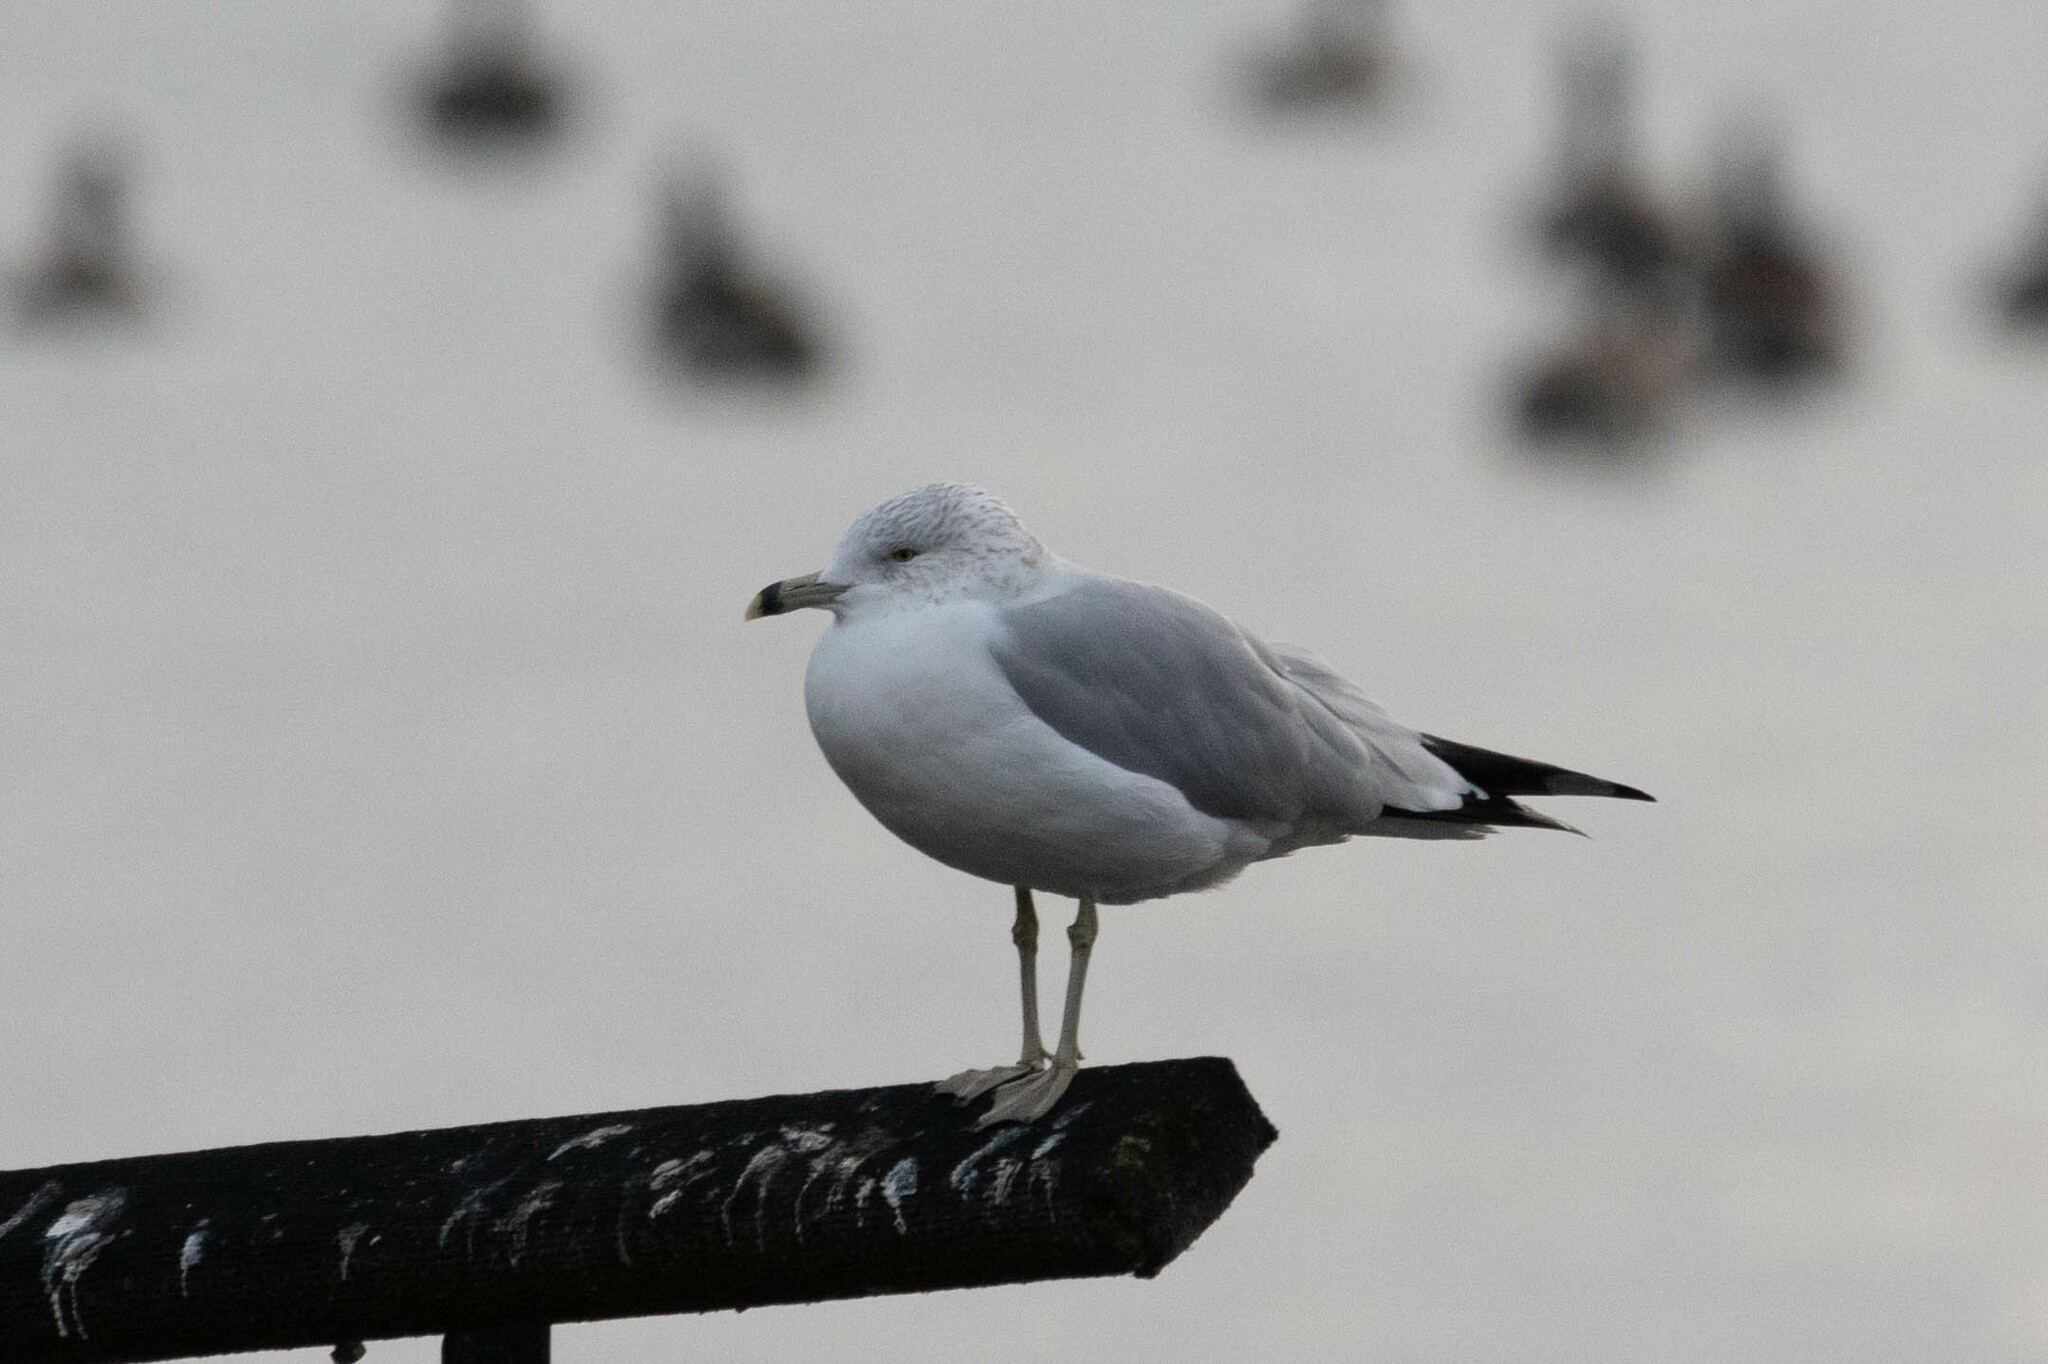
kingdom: Animalia
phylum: Chordata
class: Aves
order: Charadriiformes
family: Laridae
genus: Larus
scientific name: Larus delawarensis
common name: Ring-billed gull
